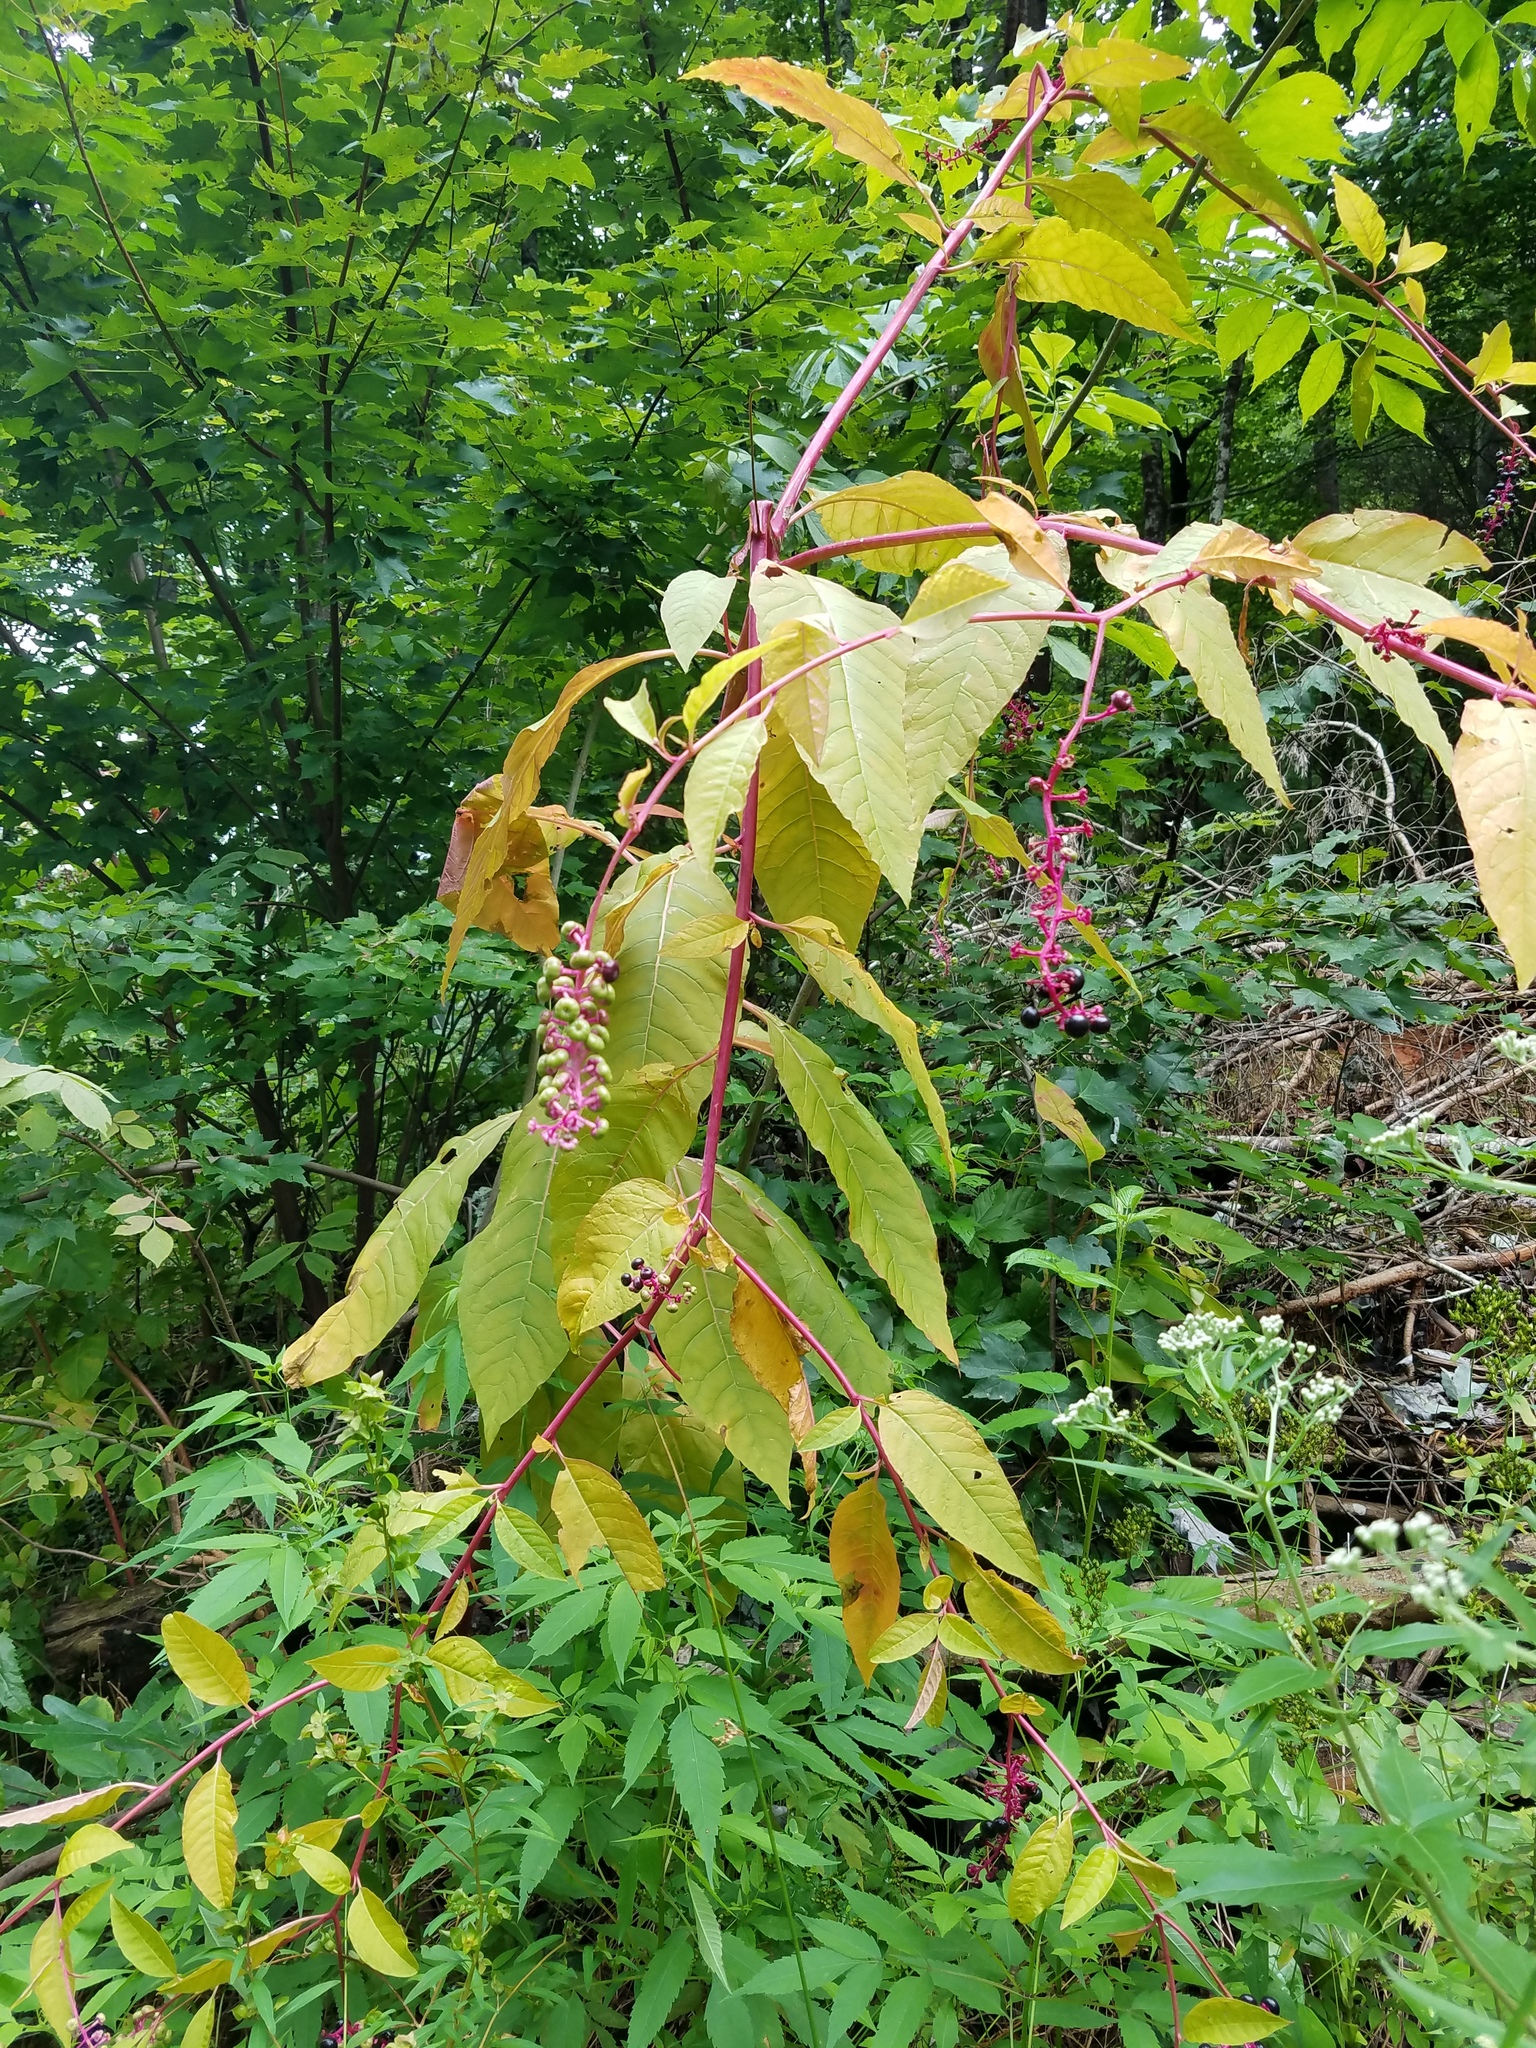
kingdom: Plantae
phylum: Tracheophyta
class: Magnoliopsida
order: Caryophyllales
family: Phytolaccaceae
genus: Phytolacca
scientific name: Phytolacca americana
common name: American pokeweed
